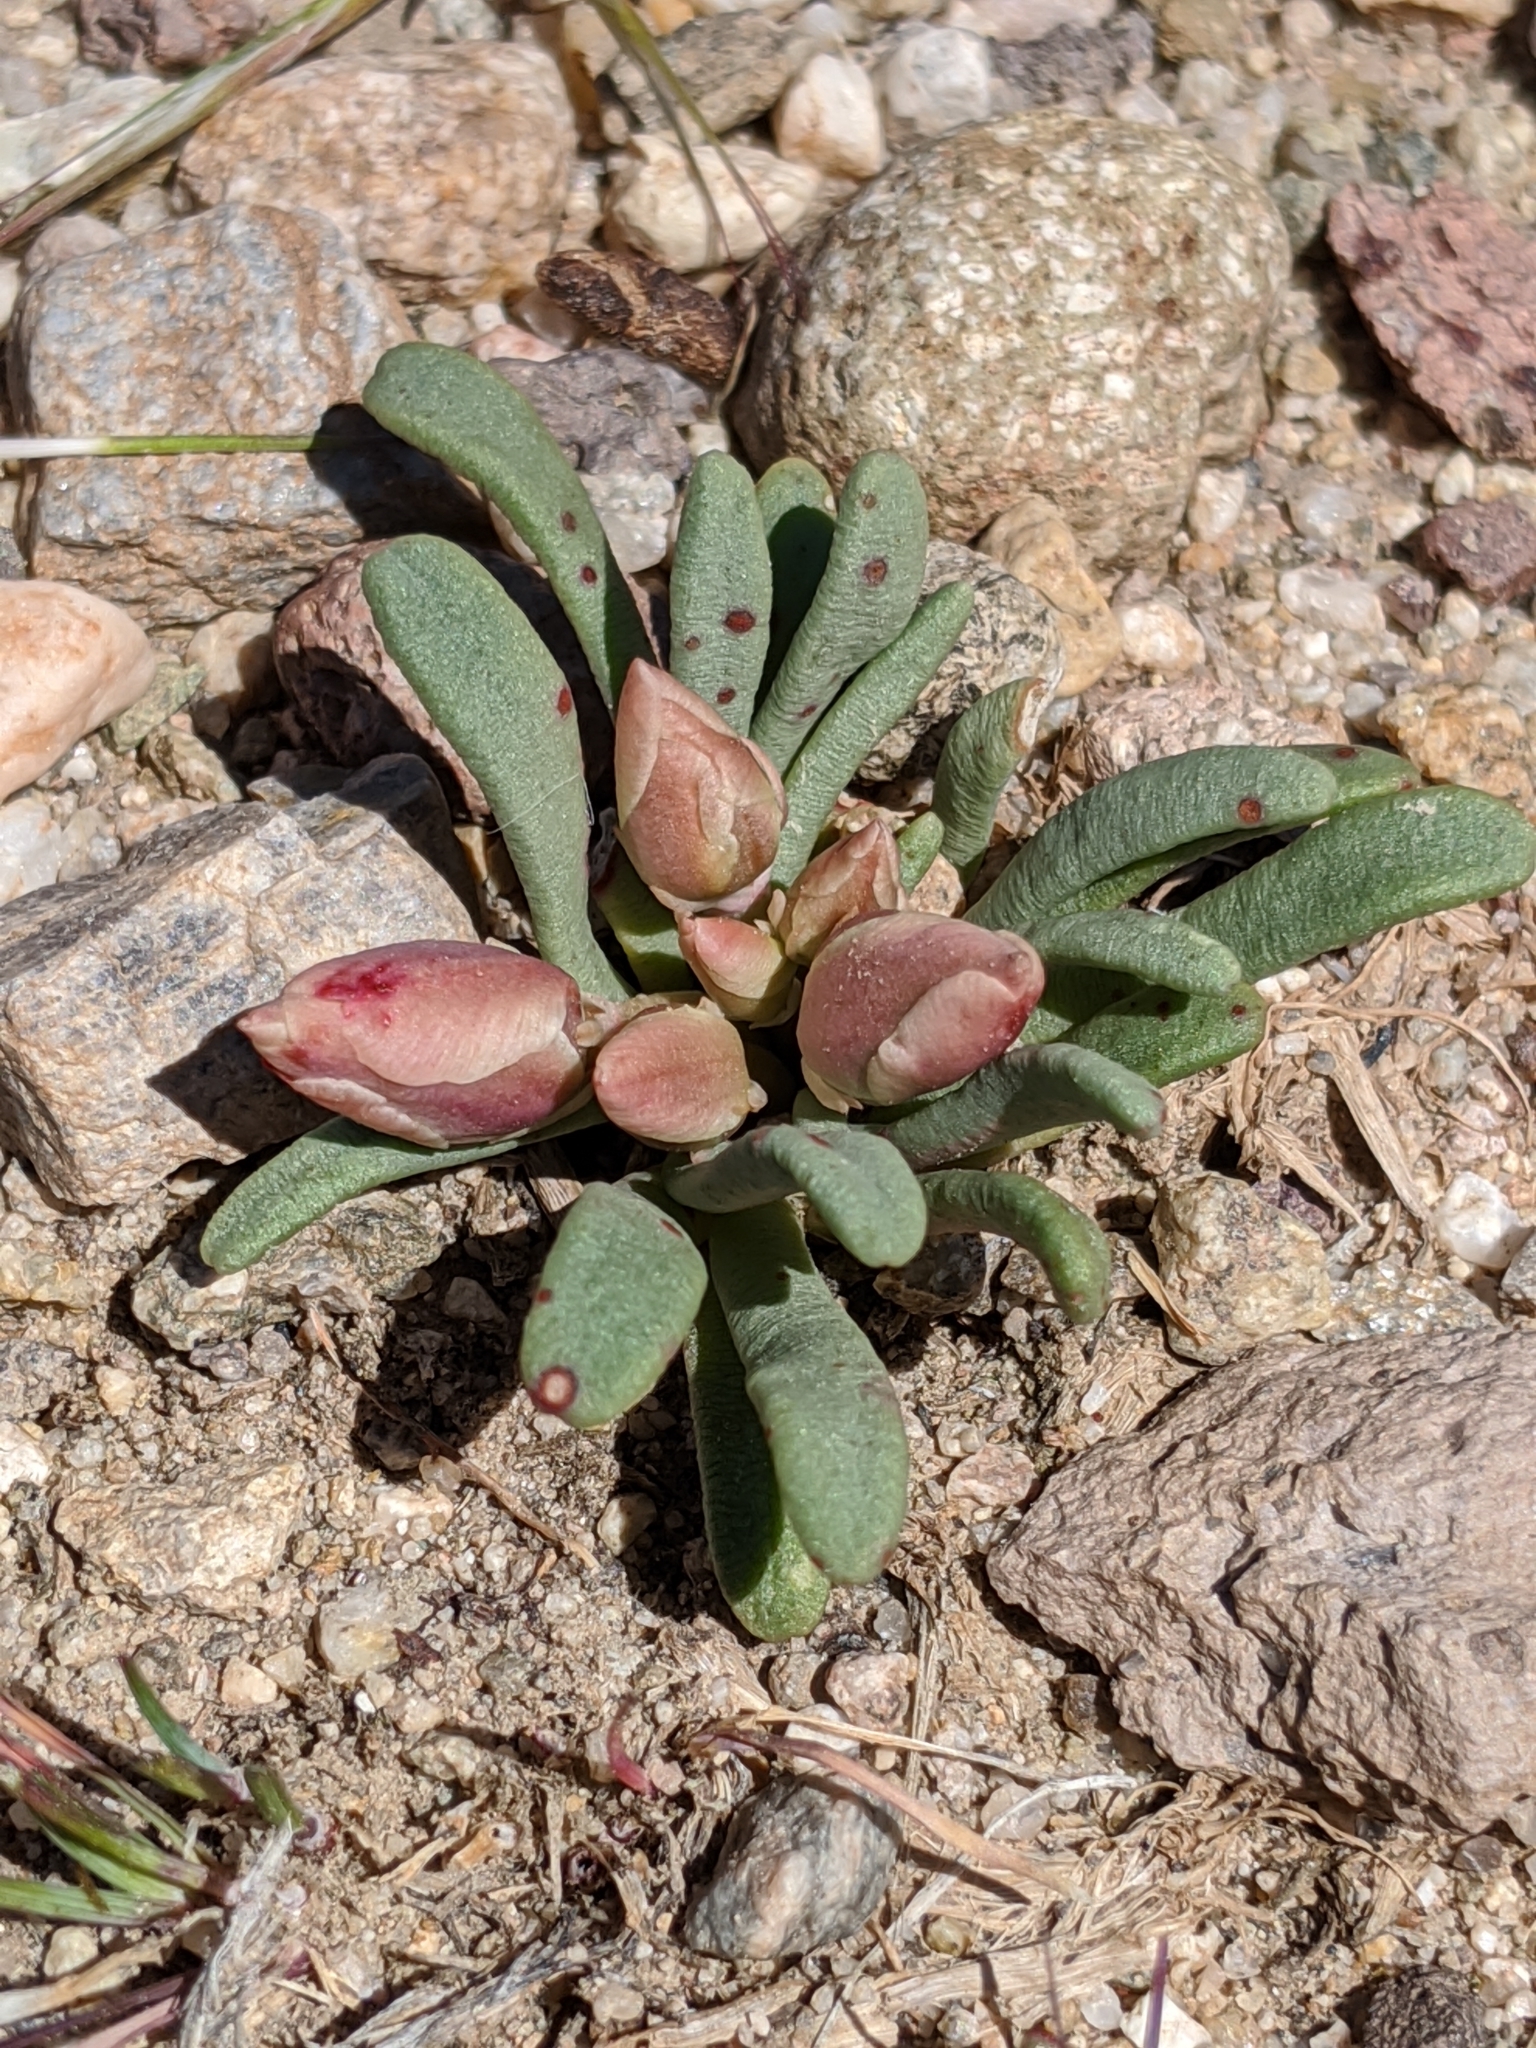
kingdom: Plantae
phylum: Tracheophyta
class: Magnoliopsida
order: Caryophyllales
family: Montiaceae
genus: Lewisia
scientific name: Lewisia rediviva
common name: Bitter-root
